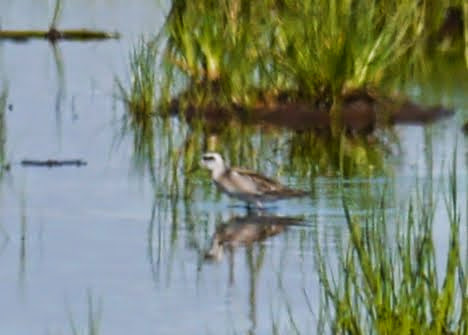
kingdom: Animalia
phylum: Chordata
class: Aves
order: Charadriiformes
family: Scolopacidae
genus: Phalaropus
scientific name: Phalaropus lobatus
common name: Red-necked phalarope
